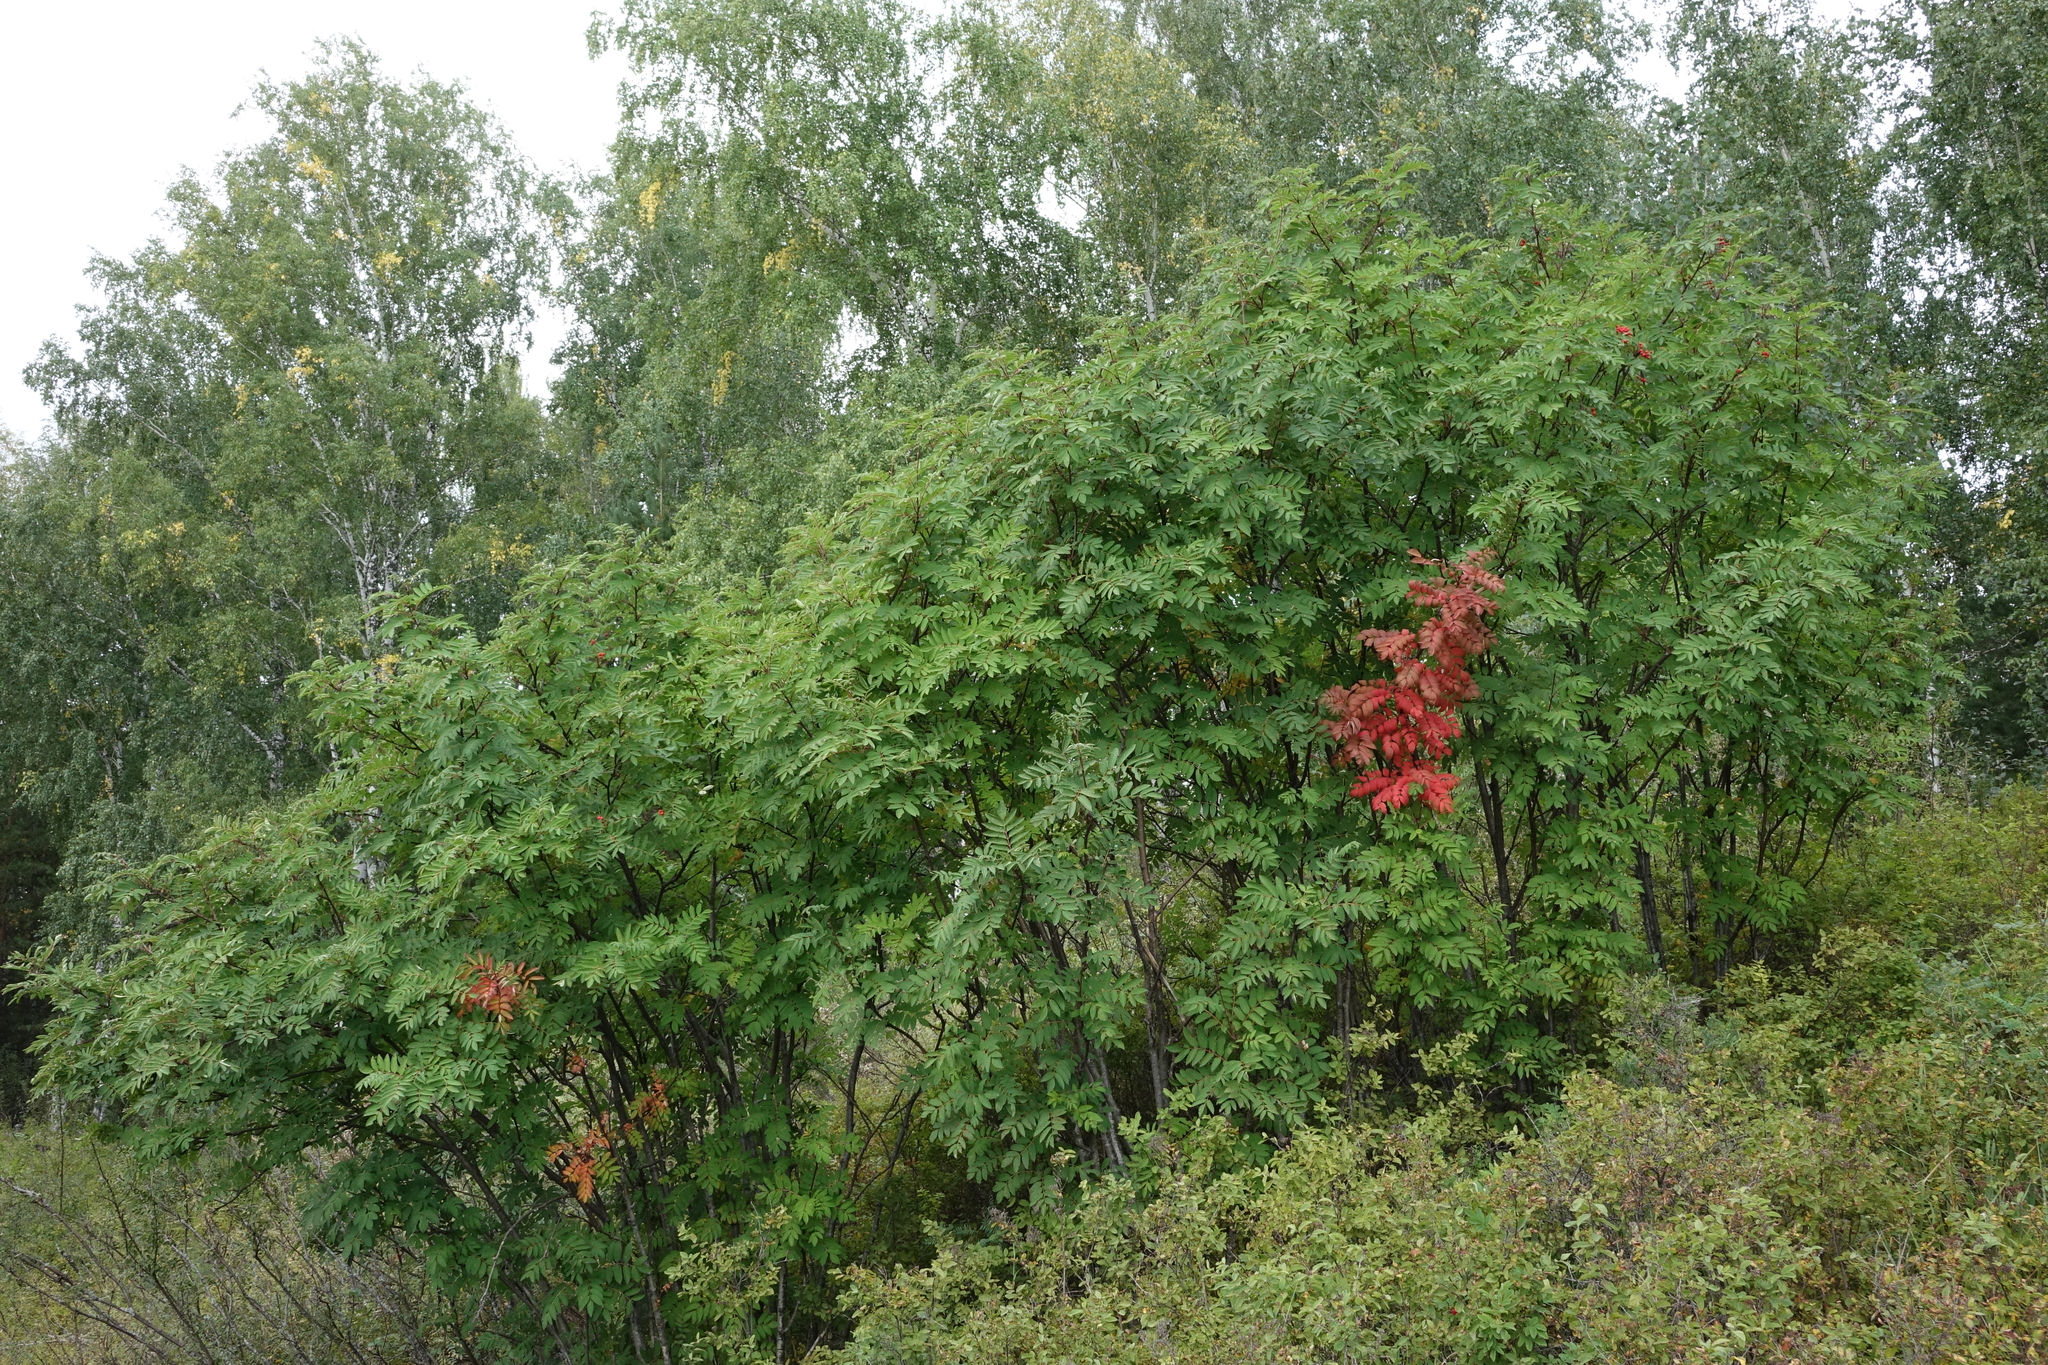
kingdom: Plantae
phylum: Tracheophyta
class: Magnoliopsida
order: Rosales
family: Rosaceae
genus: Sorbus
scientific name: Sorbus aucuparia
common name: Rowan
